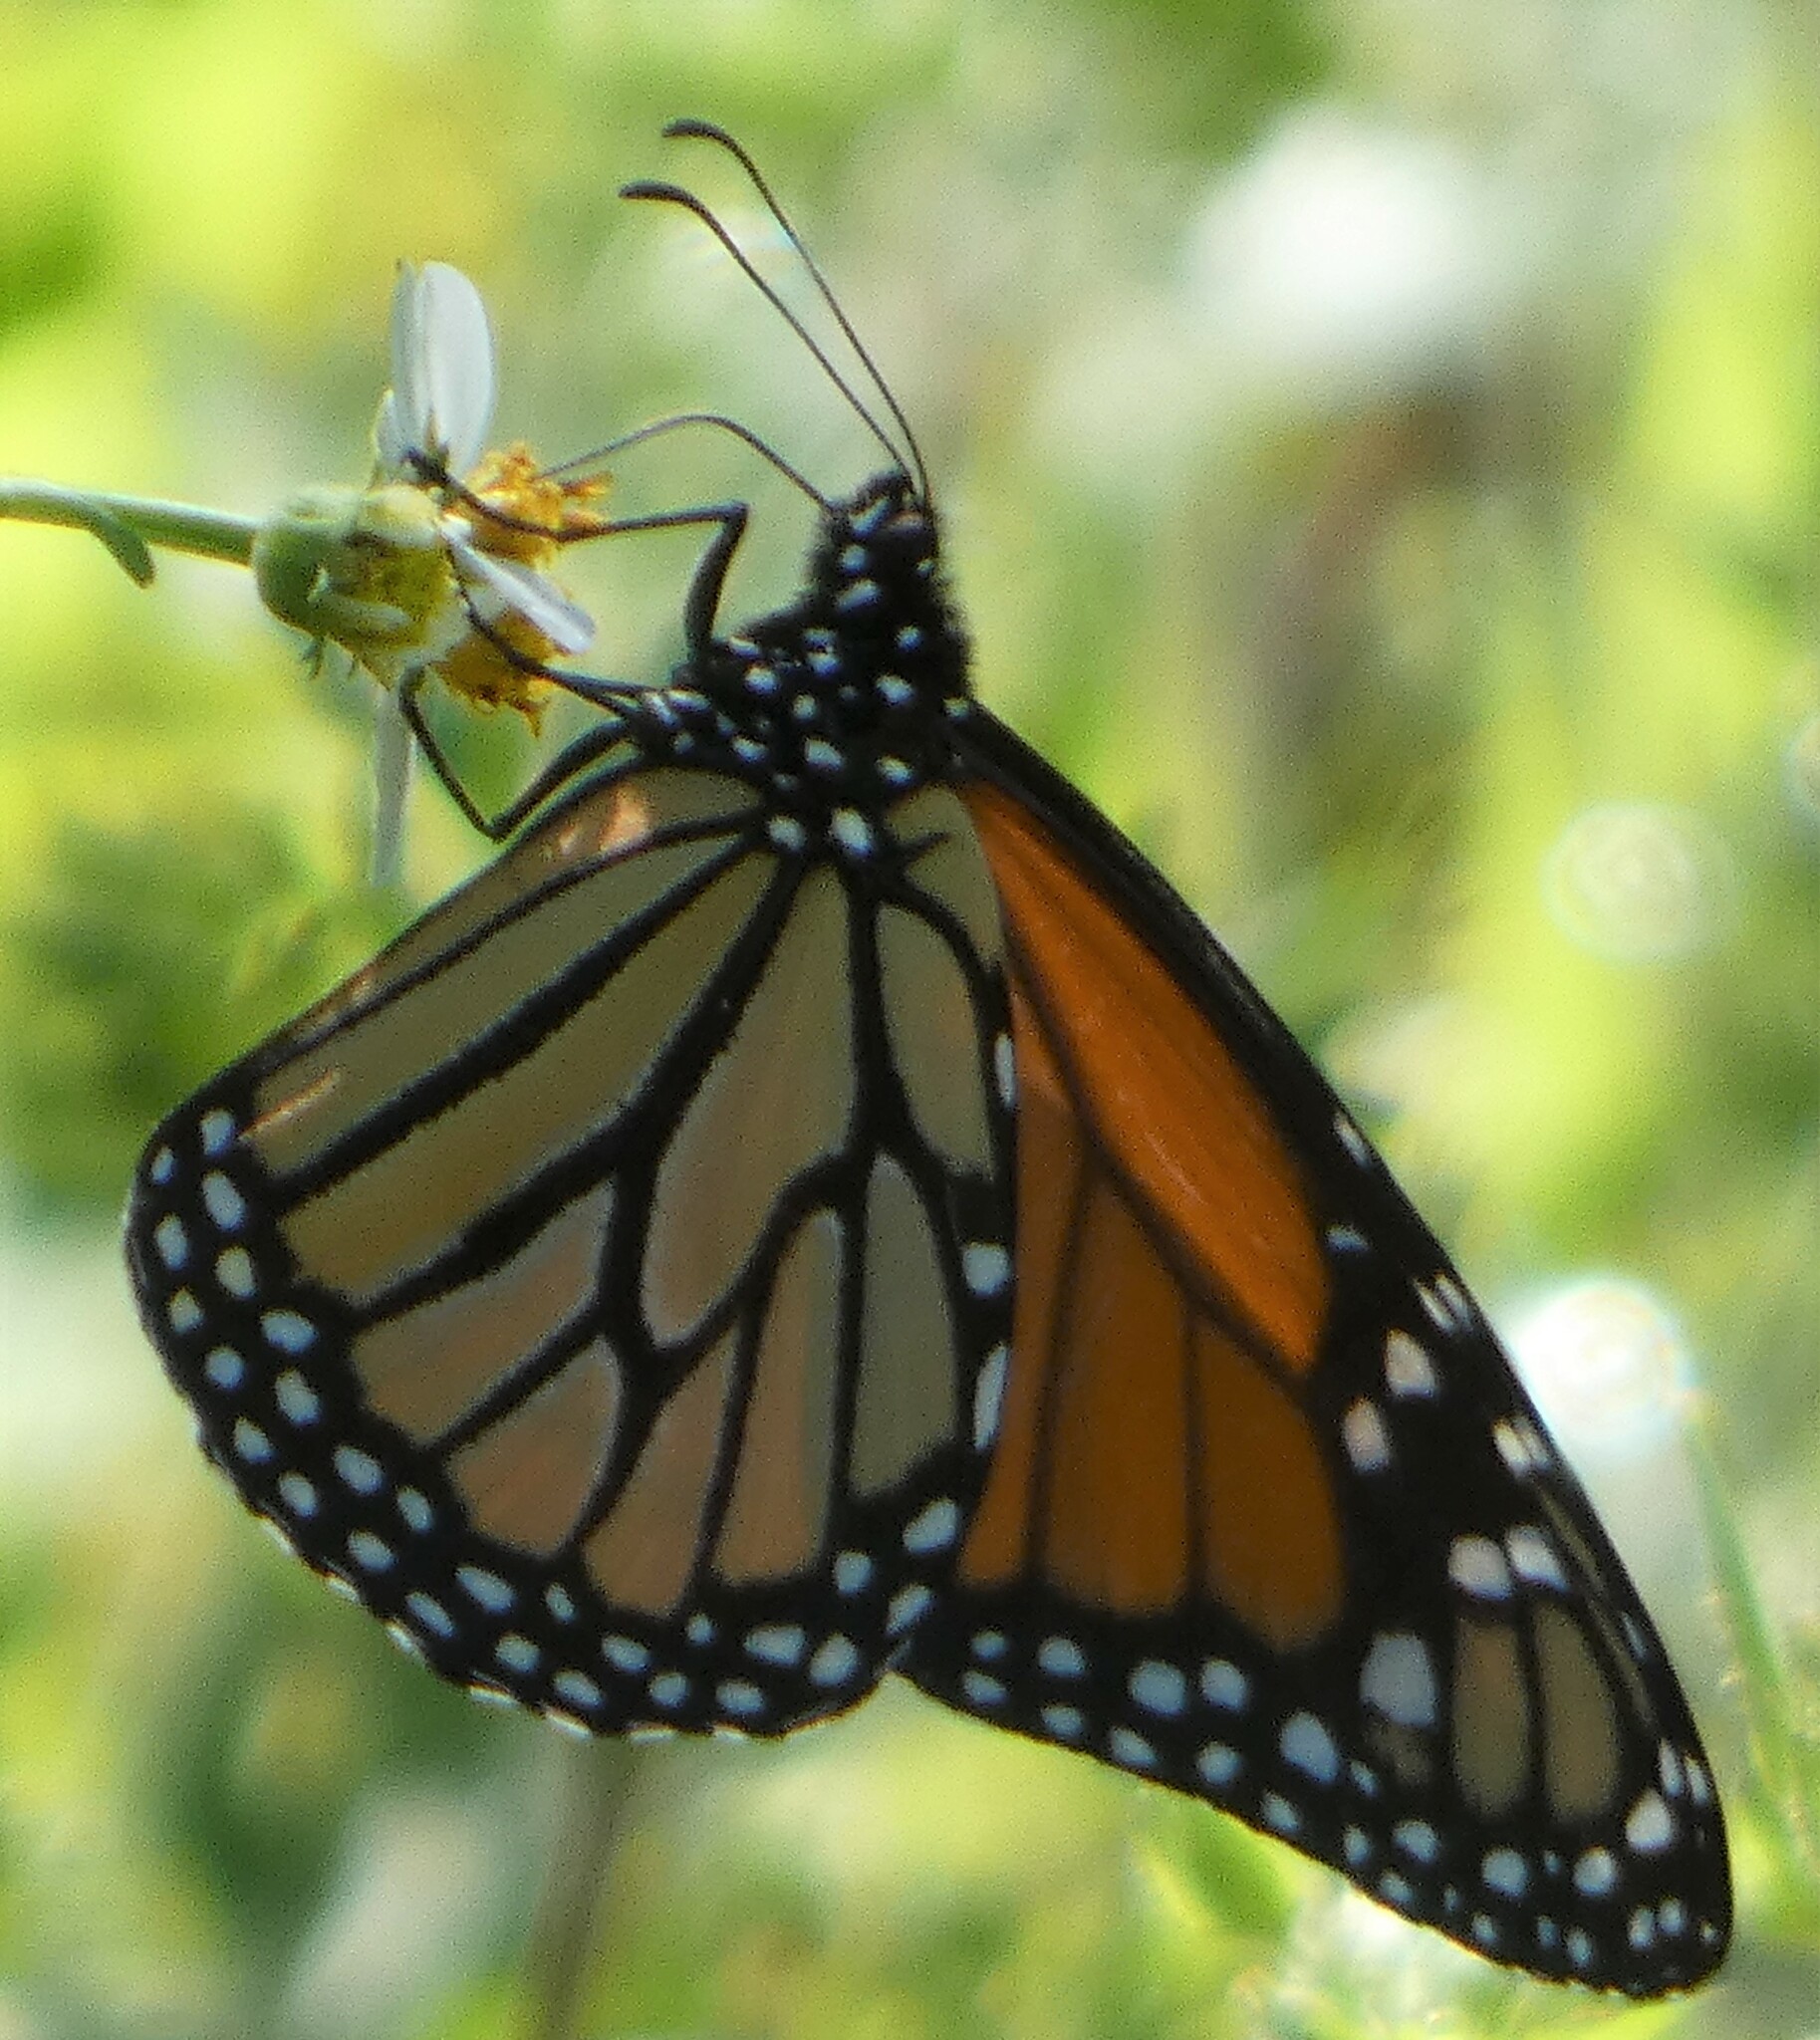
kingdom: Animalia
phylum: Arthropoda
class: Insecta
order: Lepidoptera
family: Nymphalidae
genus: Danaus
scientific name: Danaus plexippus
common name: Monarch
